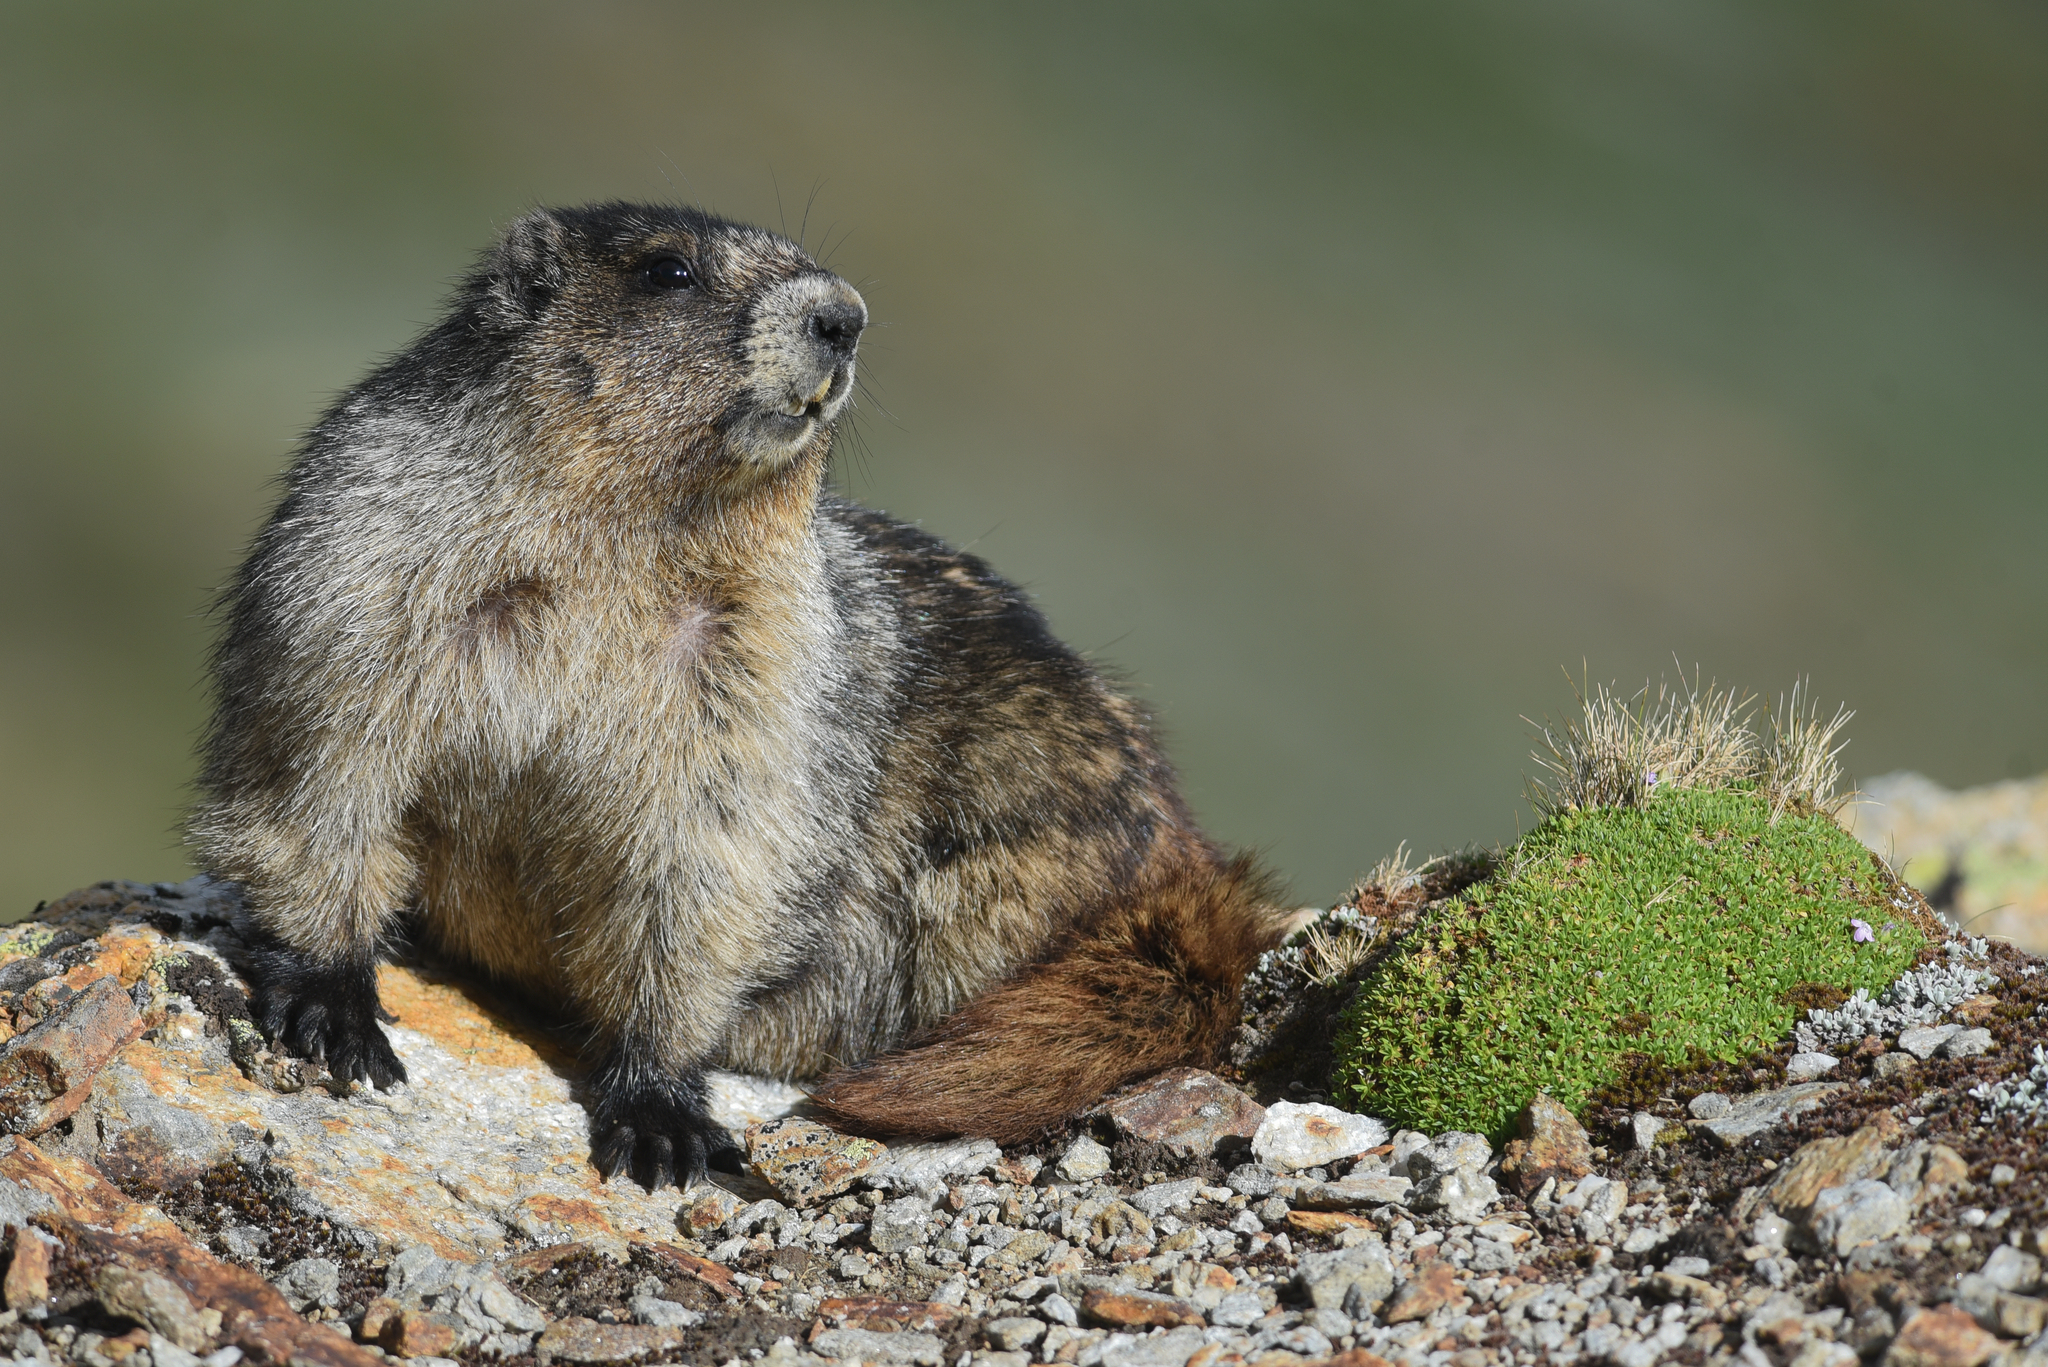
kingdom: Animalia
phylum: Chordata
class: Mammalia
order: Rodentia
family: Sciuridae
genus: Marmota
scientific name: Marmota caligata
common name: Hoary marmot
